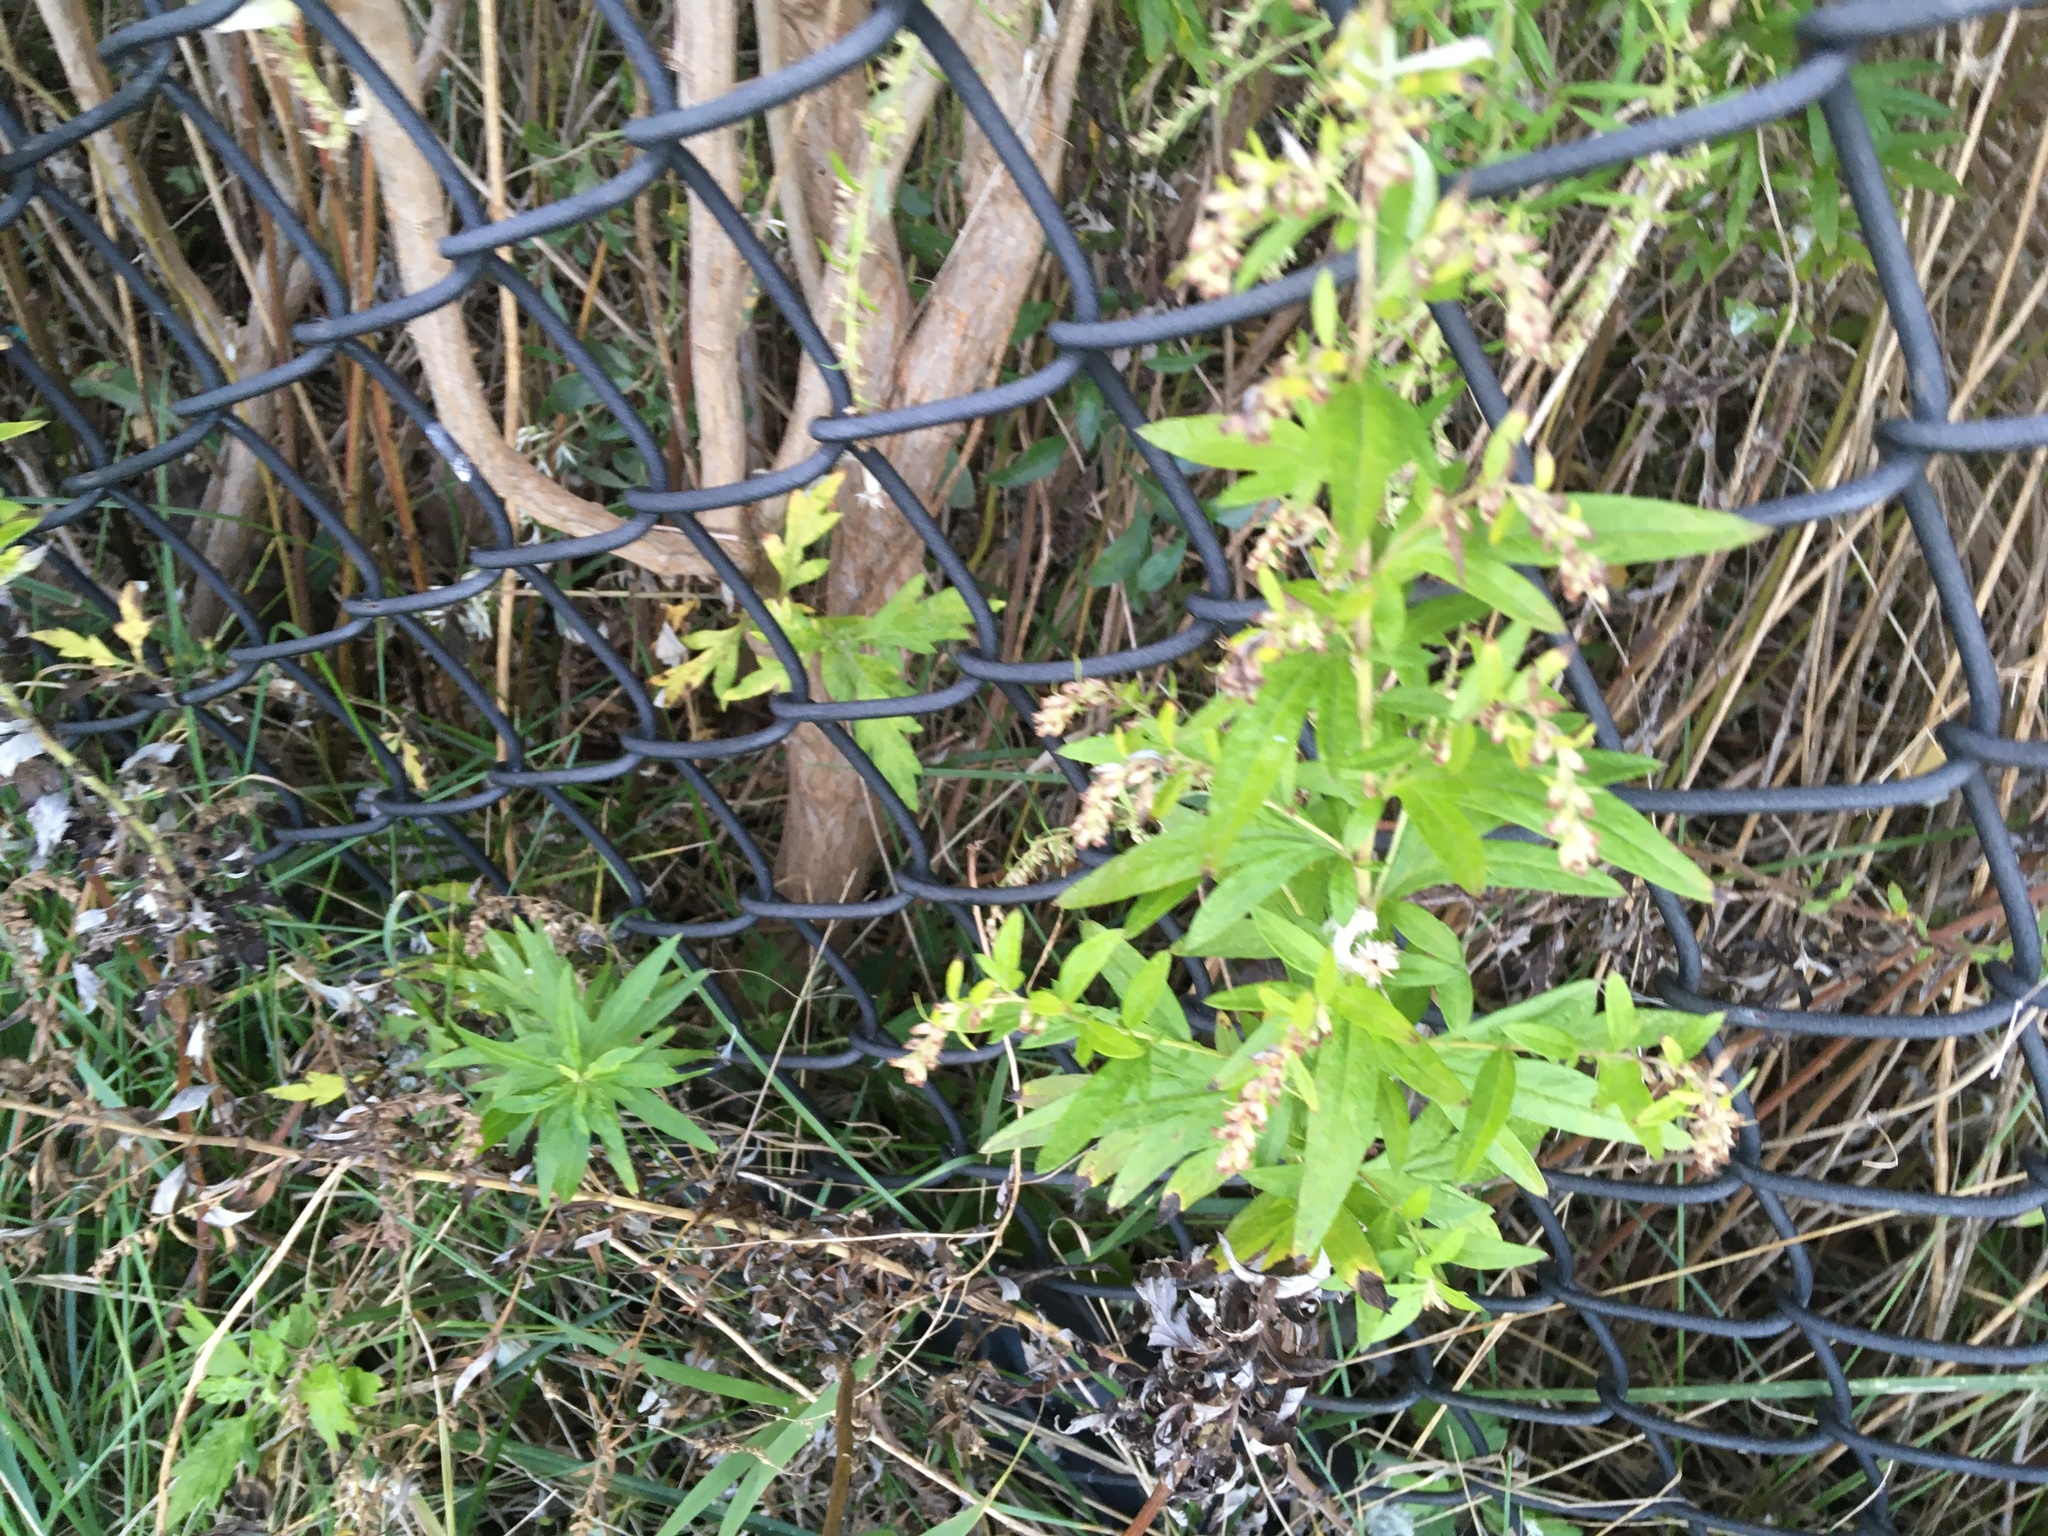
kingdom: Plantae
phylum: Tracheophyta
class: Magnoliopsida
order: Asterales
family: Asteraceae
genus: Artemisia
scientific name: Artemisia vulgaris
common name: Mugwort
